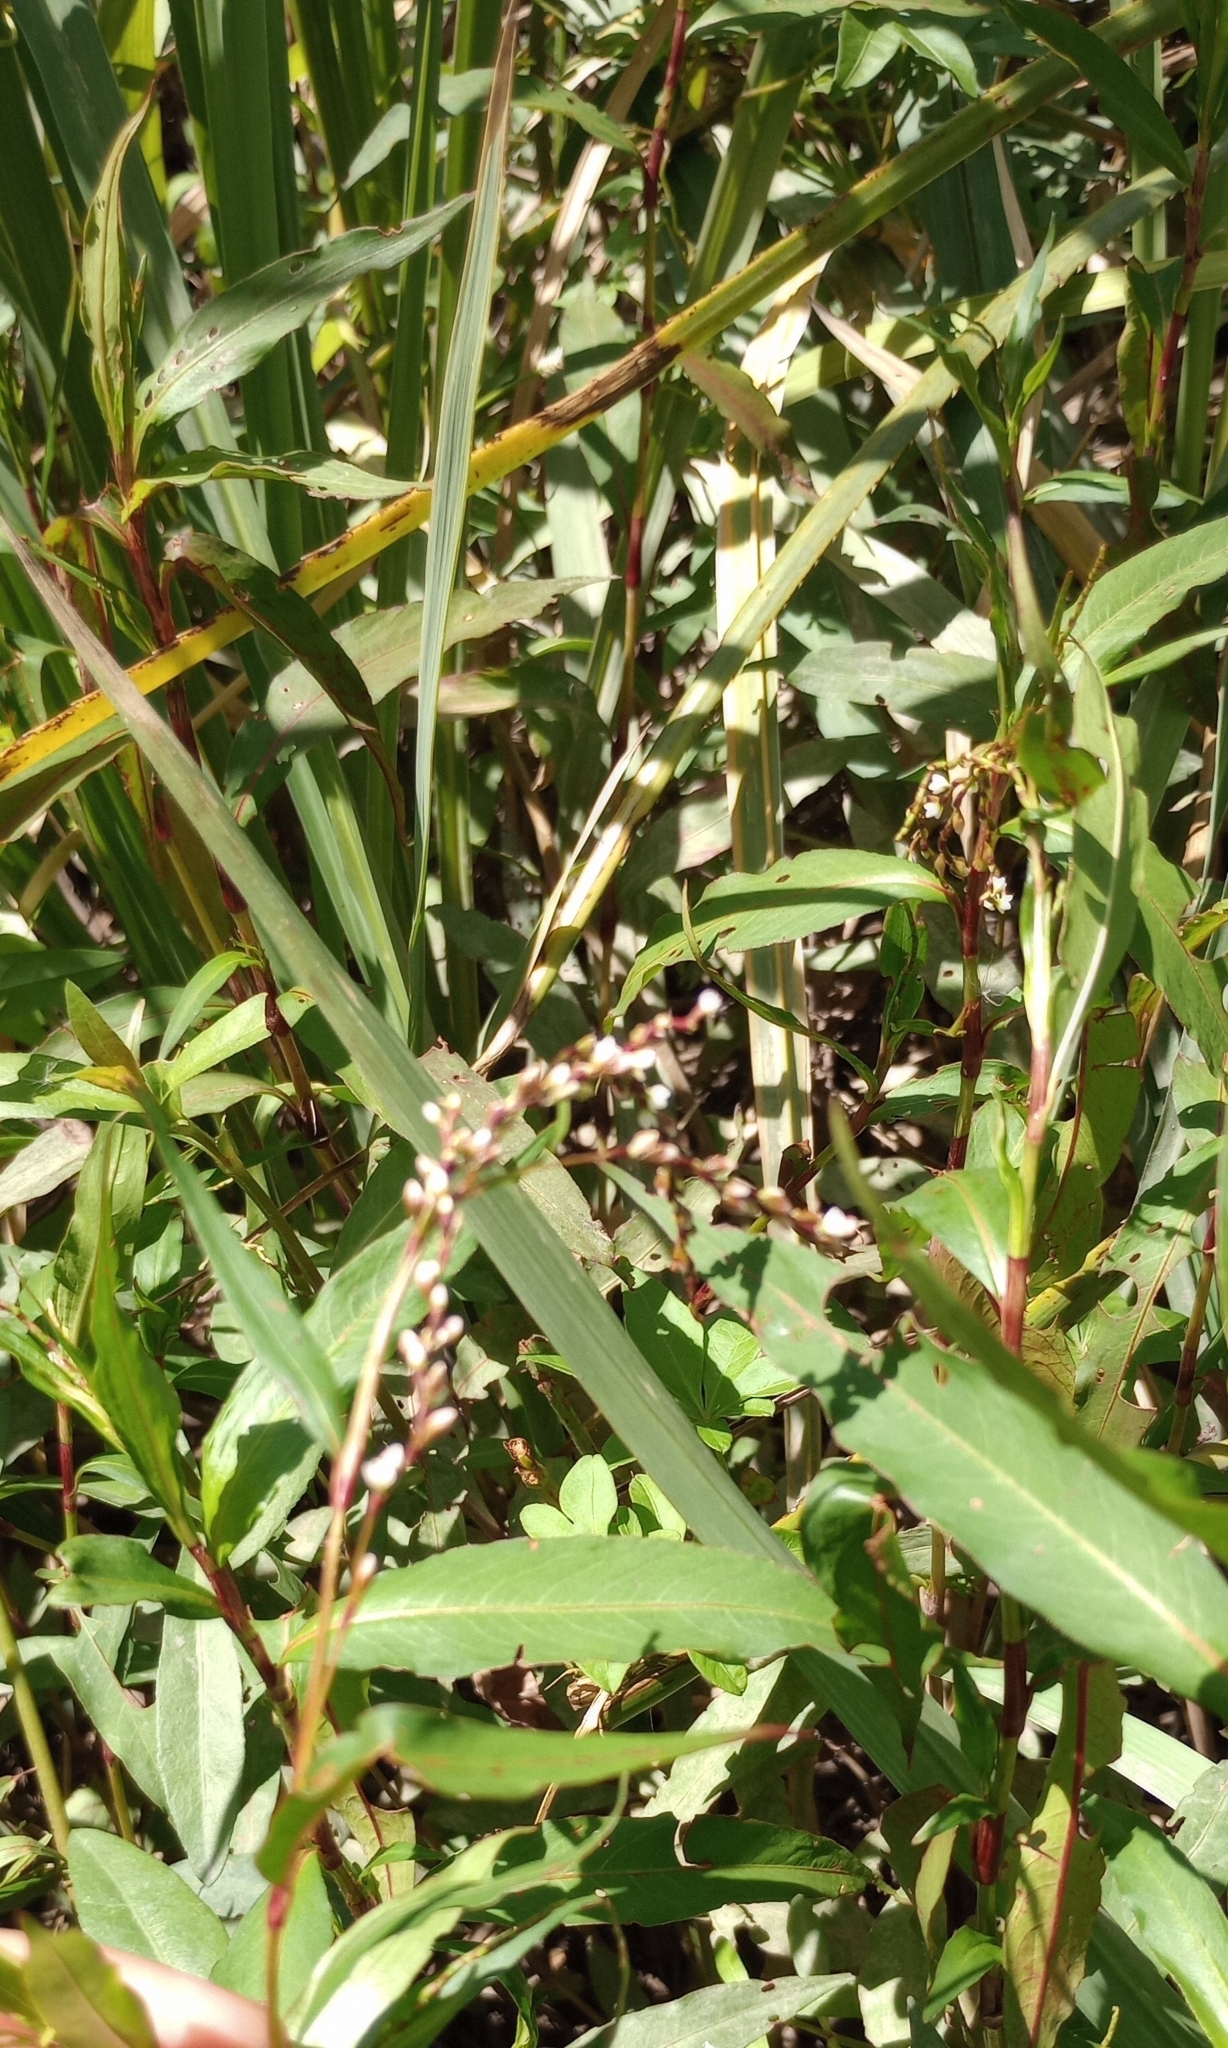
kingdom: Plantae
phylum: Tracheophyta
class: Magnoliopsida
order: Caryophyllales
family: Polygonaceae
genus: Persicaria
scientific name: Persicaria punctata
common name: Dotted smartweed
